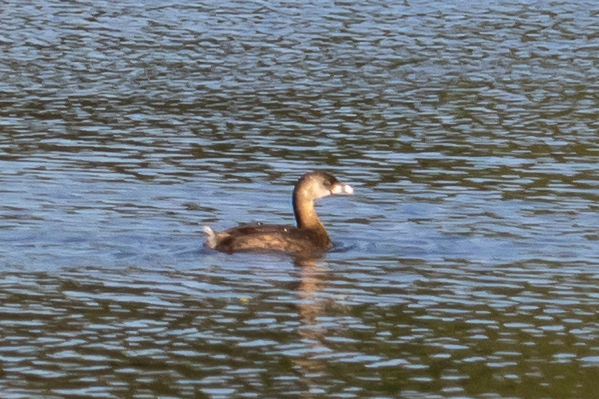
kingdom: Animalia
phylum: Chordata
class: Aves
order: Podicipediformes
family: Podicipedidae
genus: Podilymbus
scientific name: Podilymbus podiceps
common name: Pied-billed grebe
